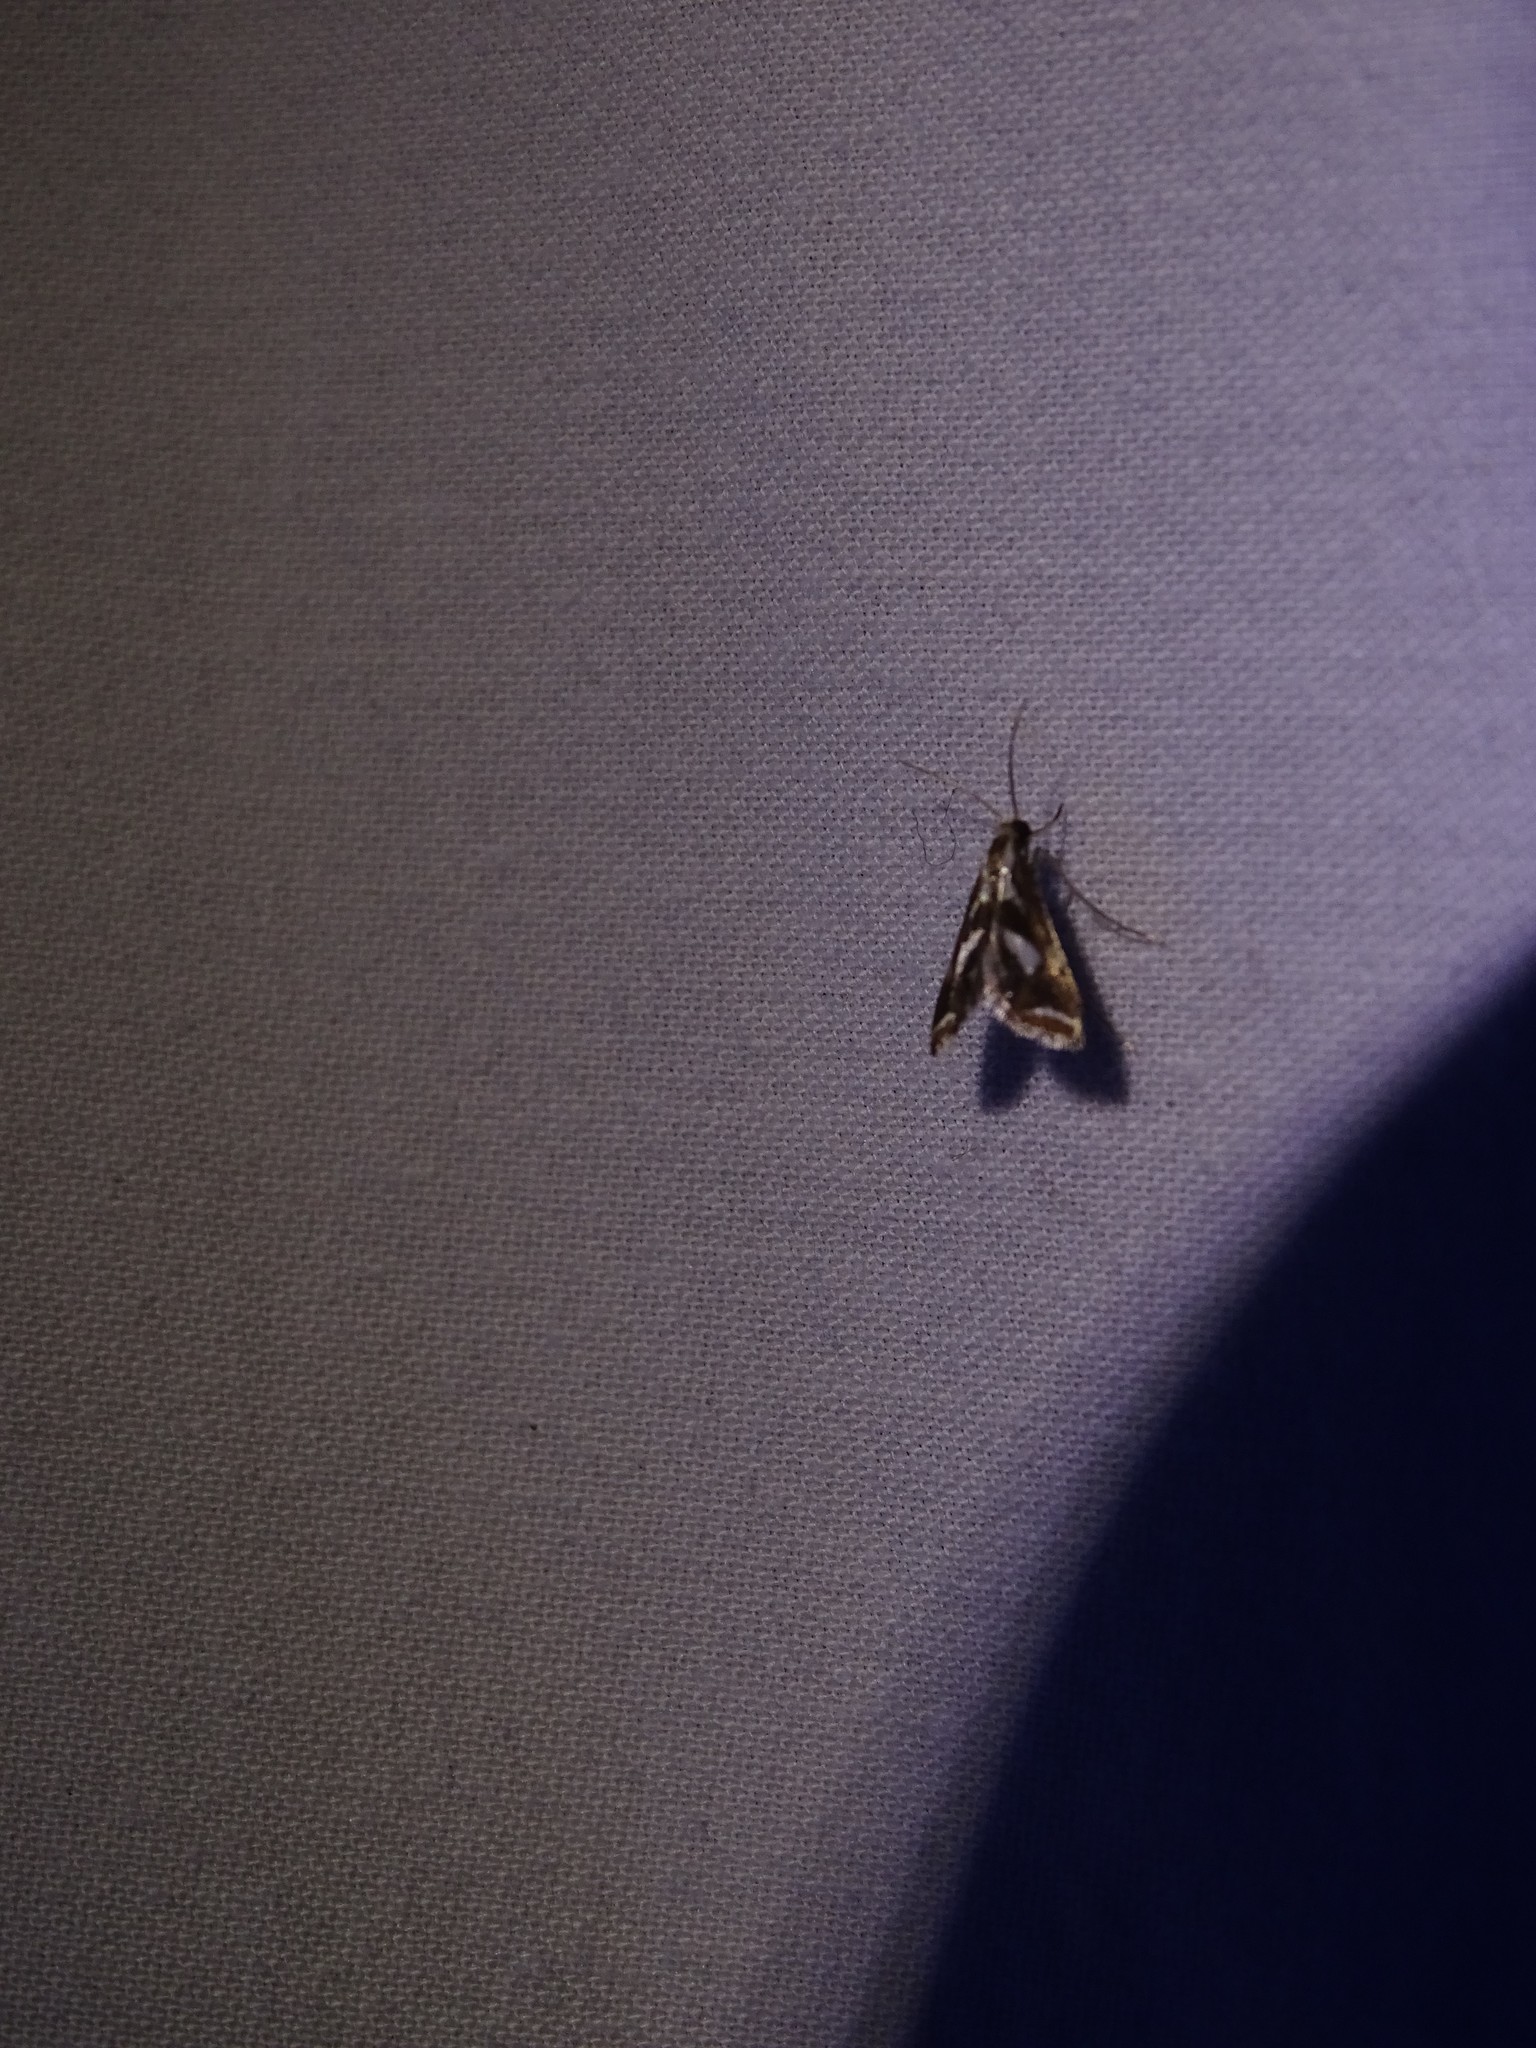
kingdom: Animalia
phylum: Arthropoda
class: Insecta
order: Lepidoptera
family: Crambidae
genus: Chrysendeton
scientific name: Chrysendeton imitabilis
